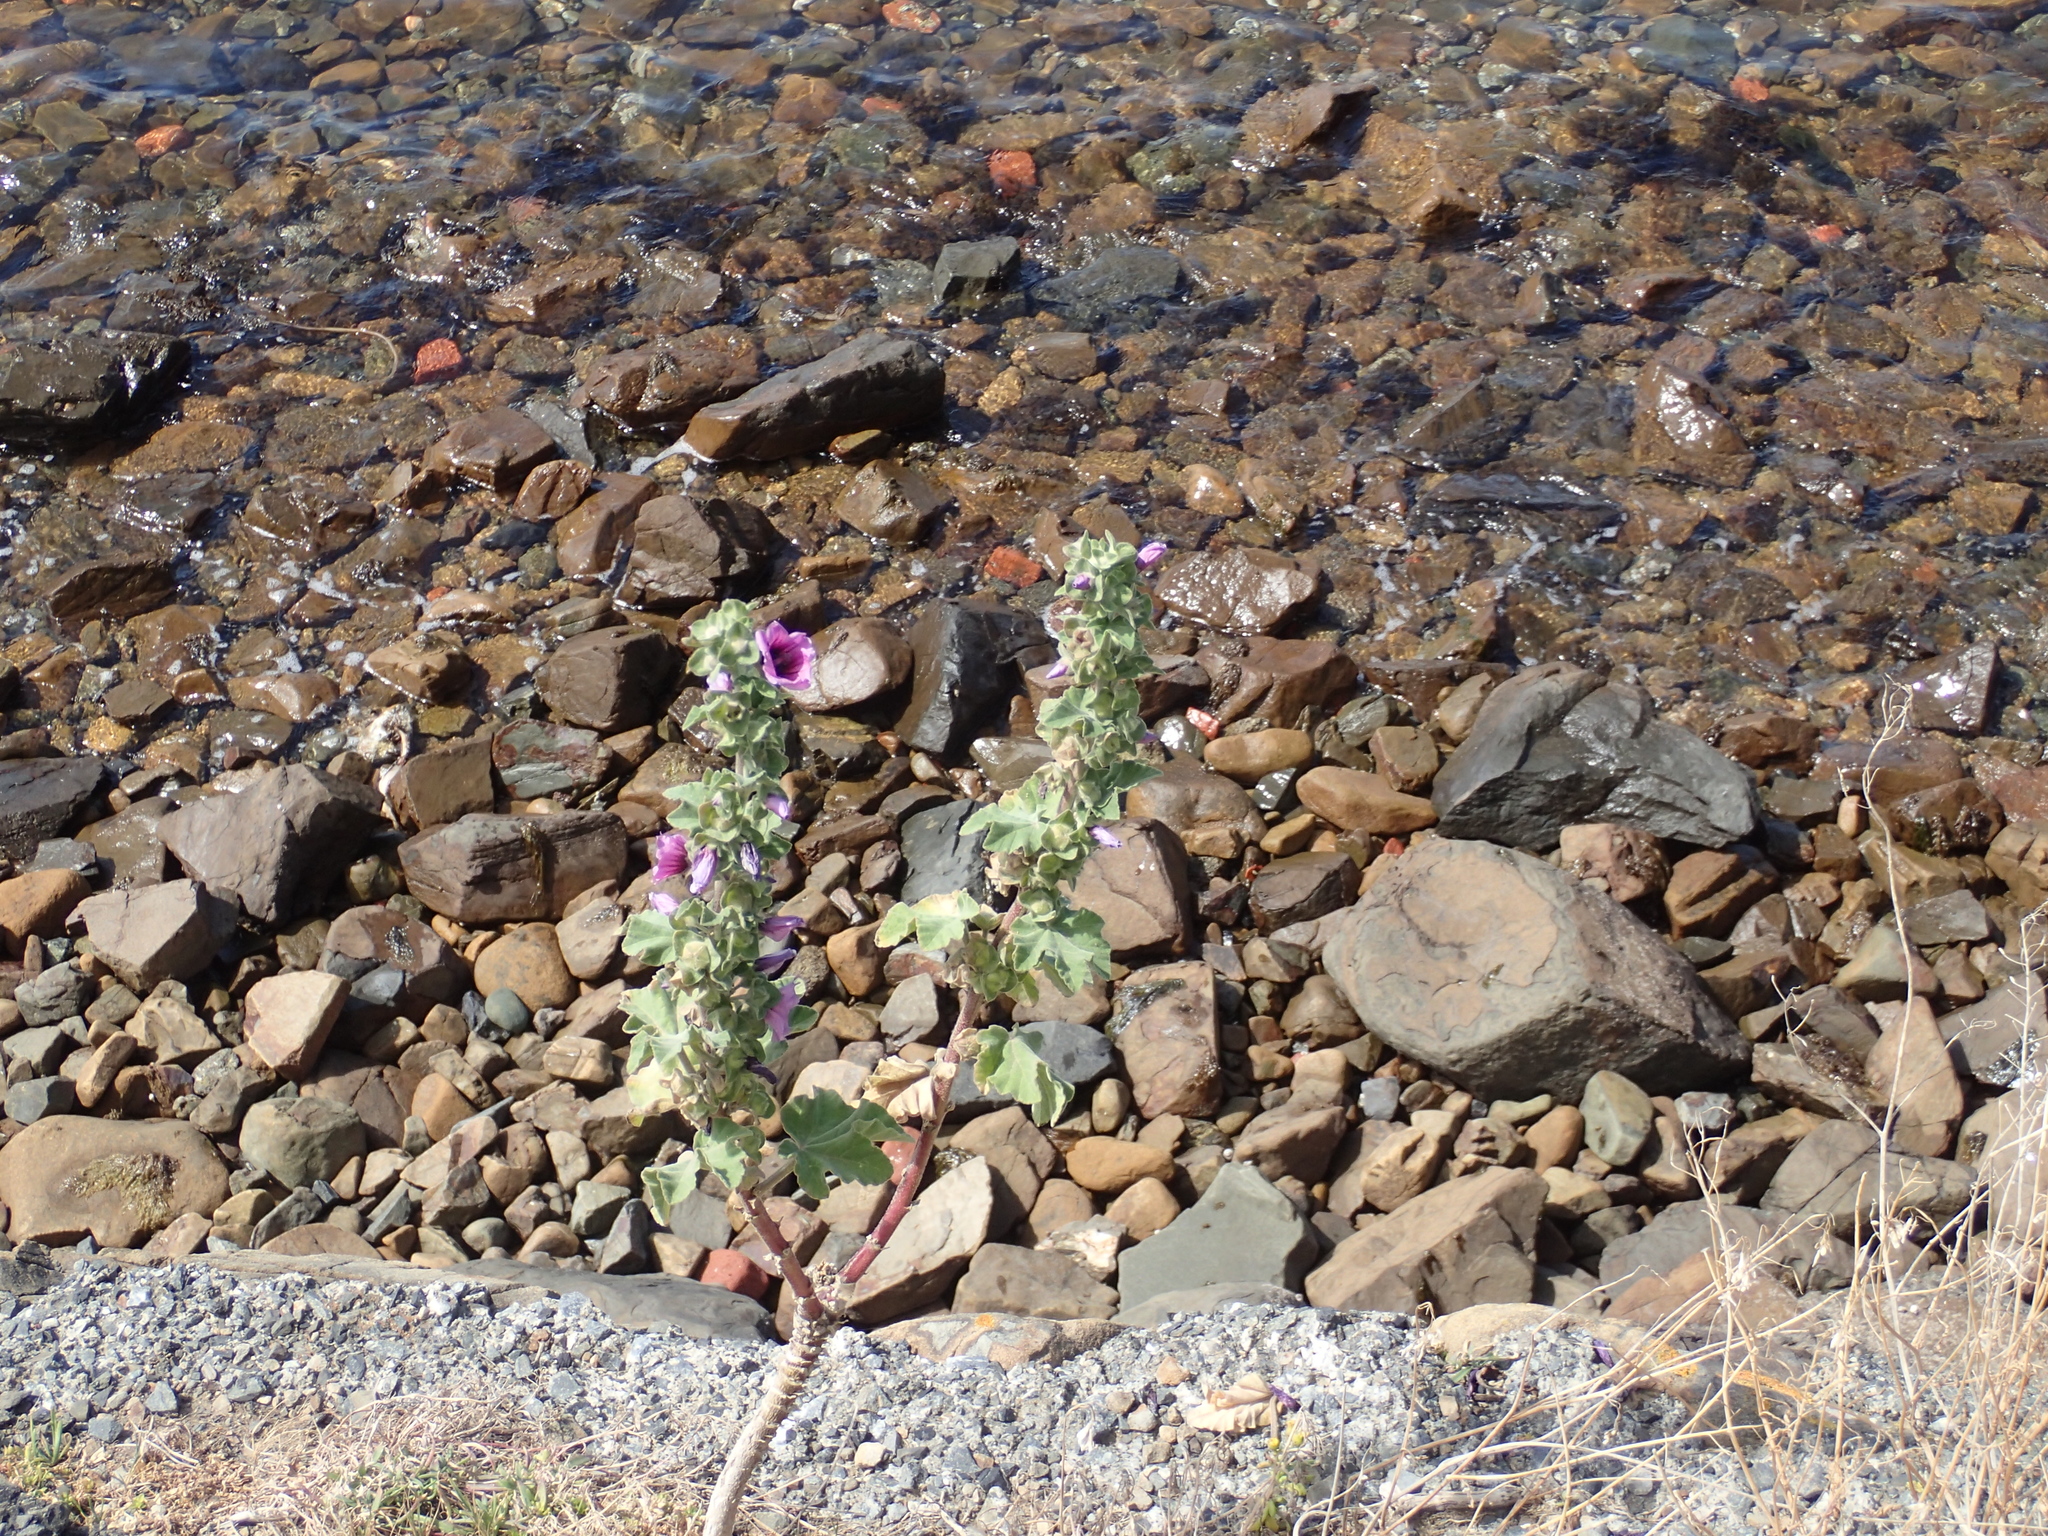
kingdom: Plantae
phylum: Tracheophyta
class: Magnoliopsida
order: Malvales
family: Malvaceae
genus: Malva
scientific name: Malva arborea
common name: Tree mallow
